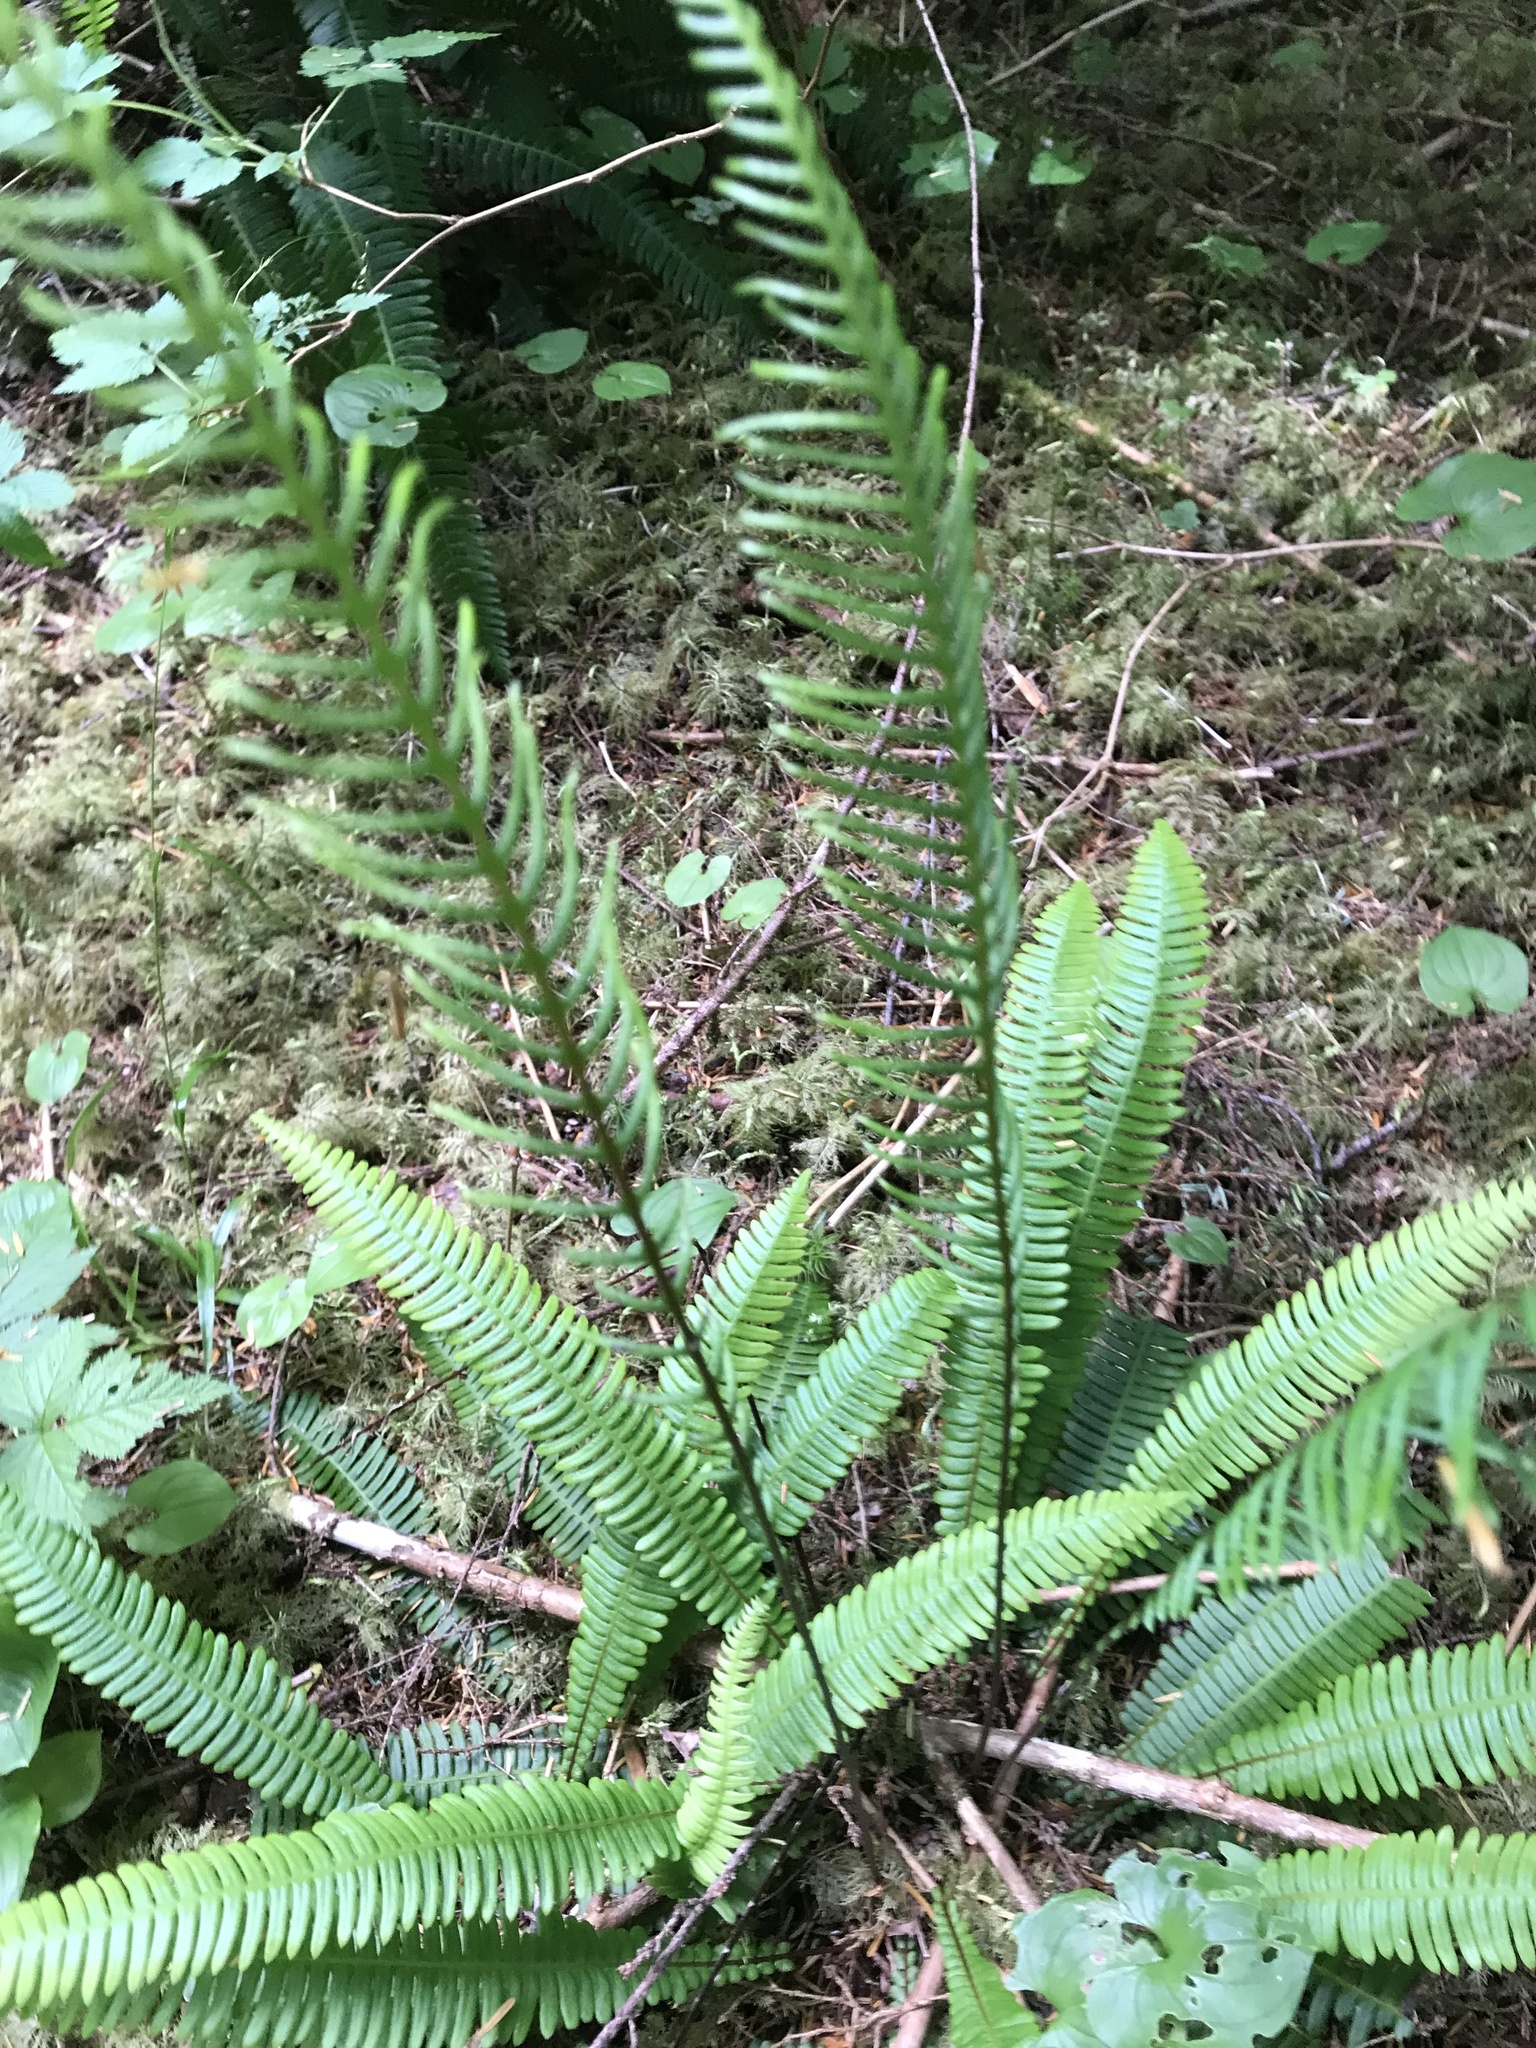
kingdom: Plantae
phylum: Tracheophyta
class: Polypodiopsida
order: Polypodiales
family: Blechnaceae
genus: Struthiopteris
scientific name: Struthiopteris spicant
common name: Deer fern
